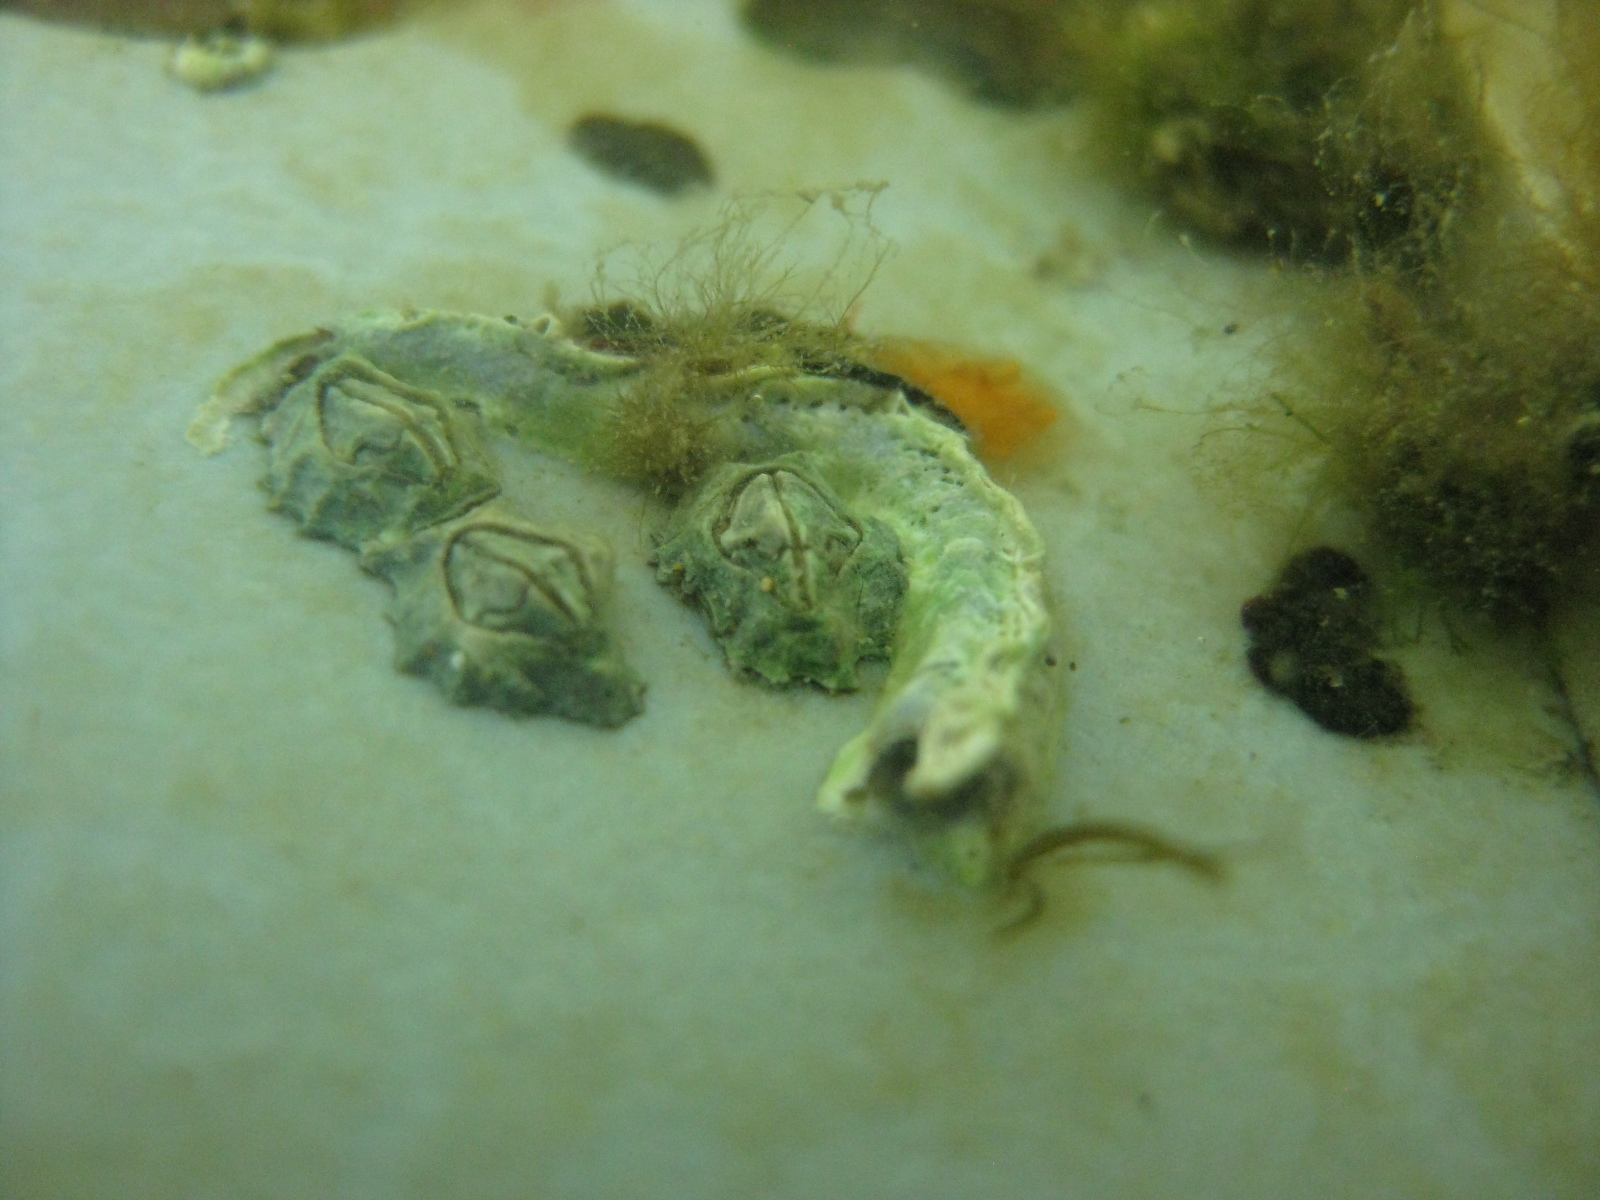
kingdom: Animalia
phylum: Annelida
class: Polychaeta
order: Sabellida
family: Serpulidae
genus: Spirobranchus
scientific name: Spirobranchus cariniferus
